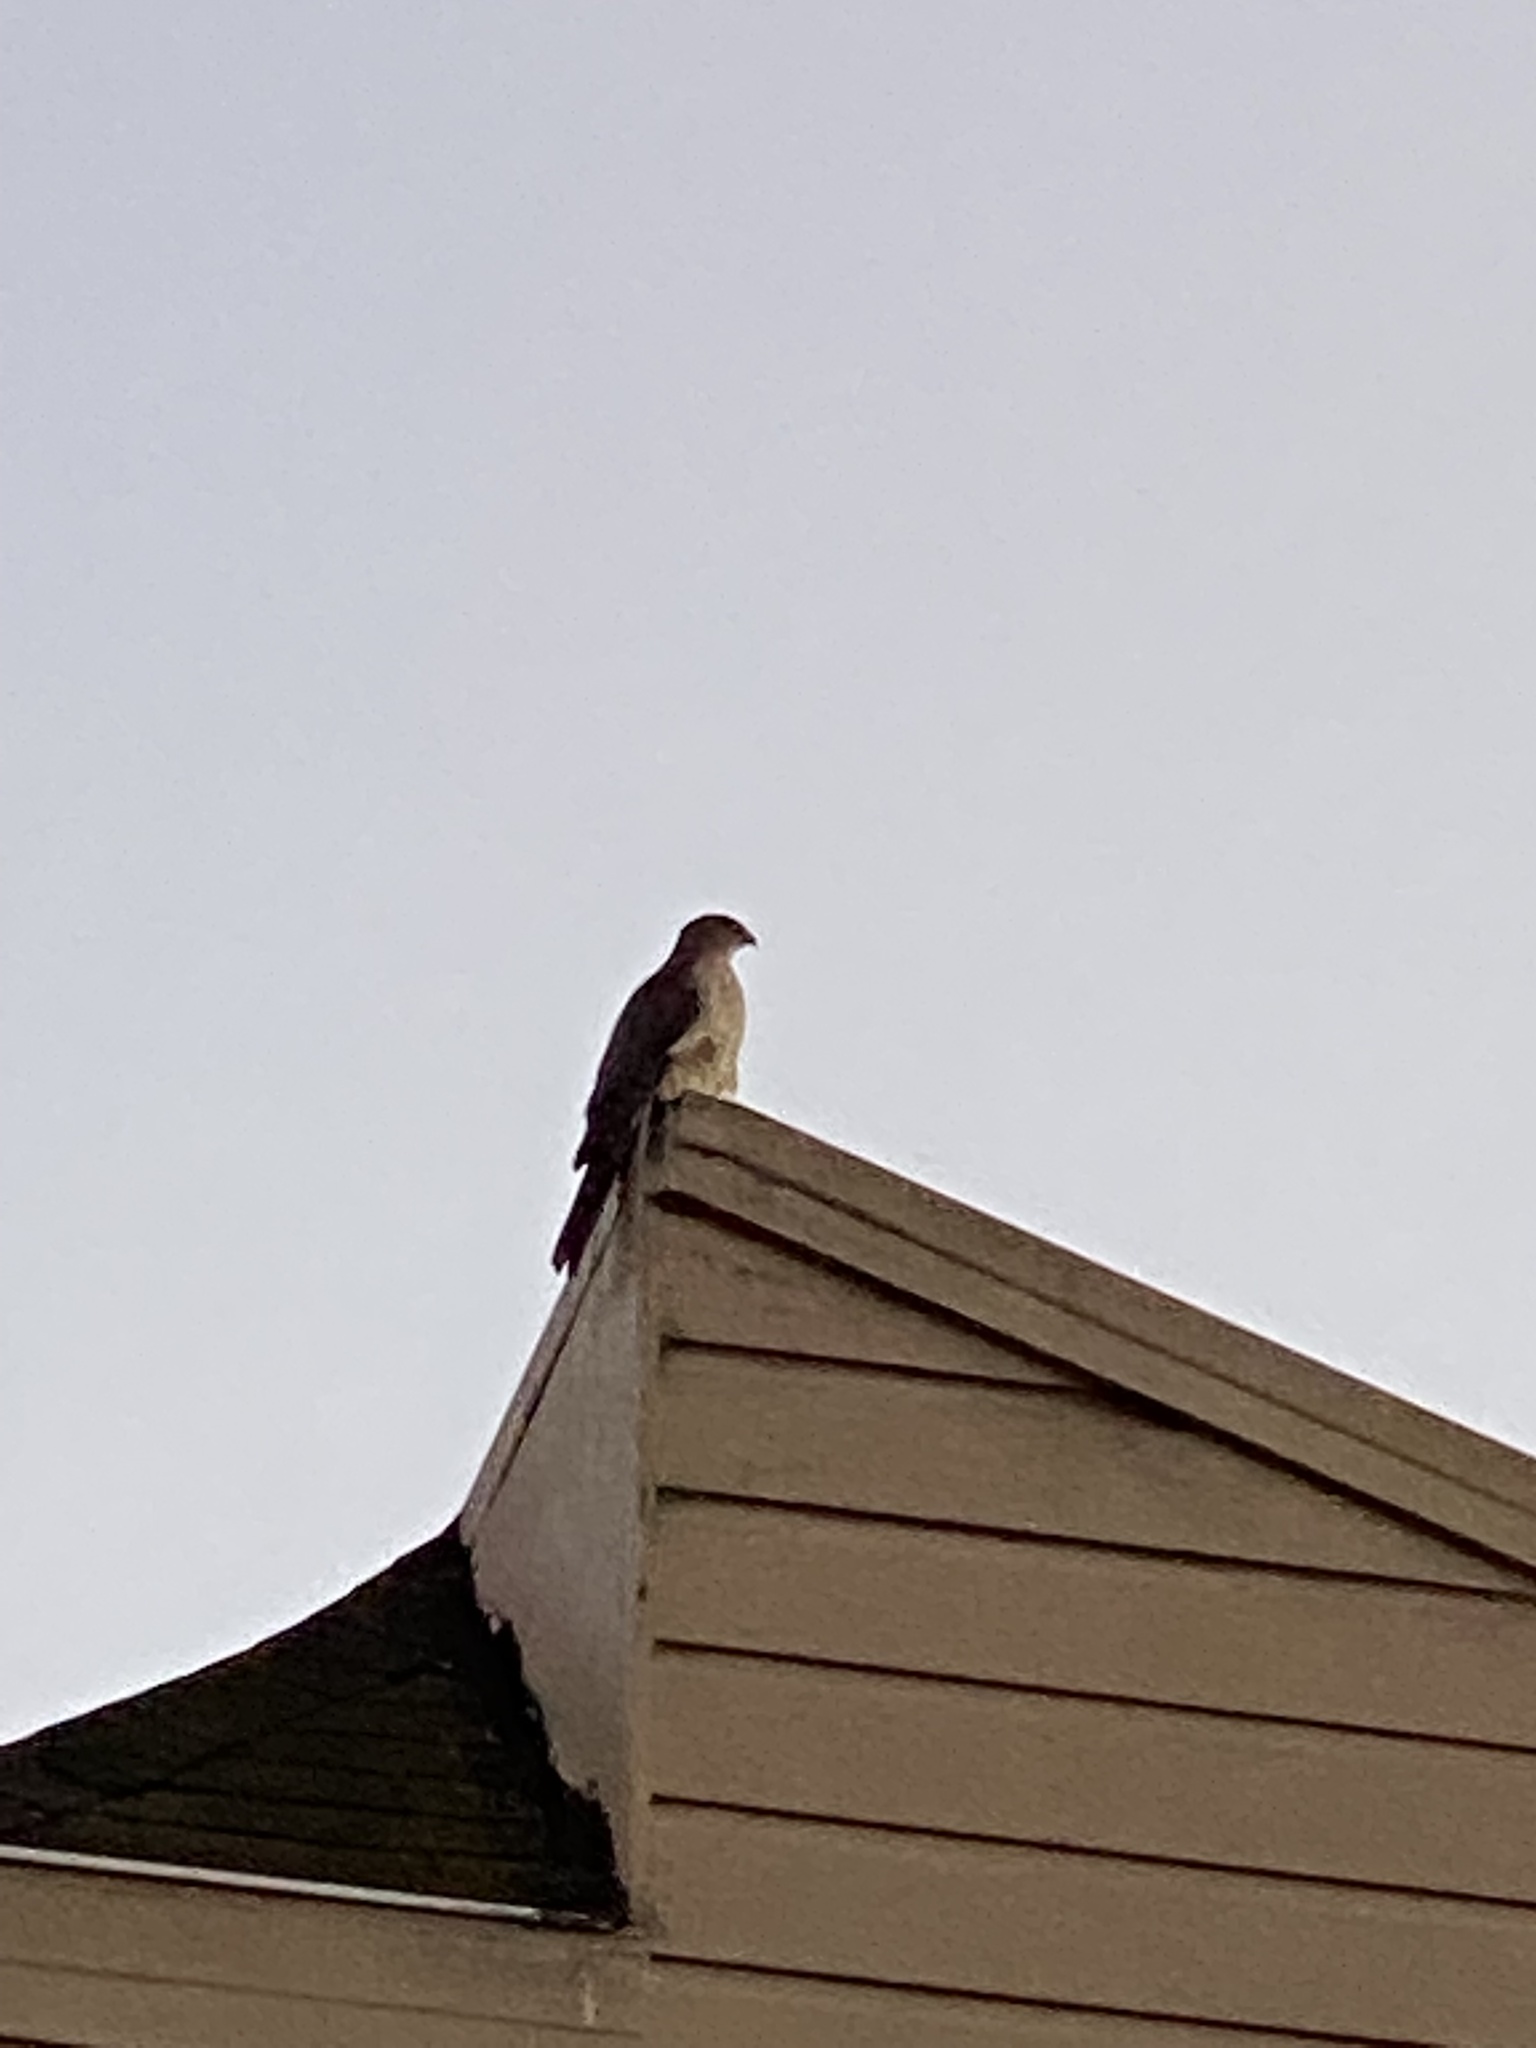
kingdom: Animalia
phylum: Chordata
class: Aves
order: Accipitriformes
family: Accipitridae
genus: Accipiter
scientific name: Accipiter cooperii
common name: Cooper's hawk
